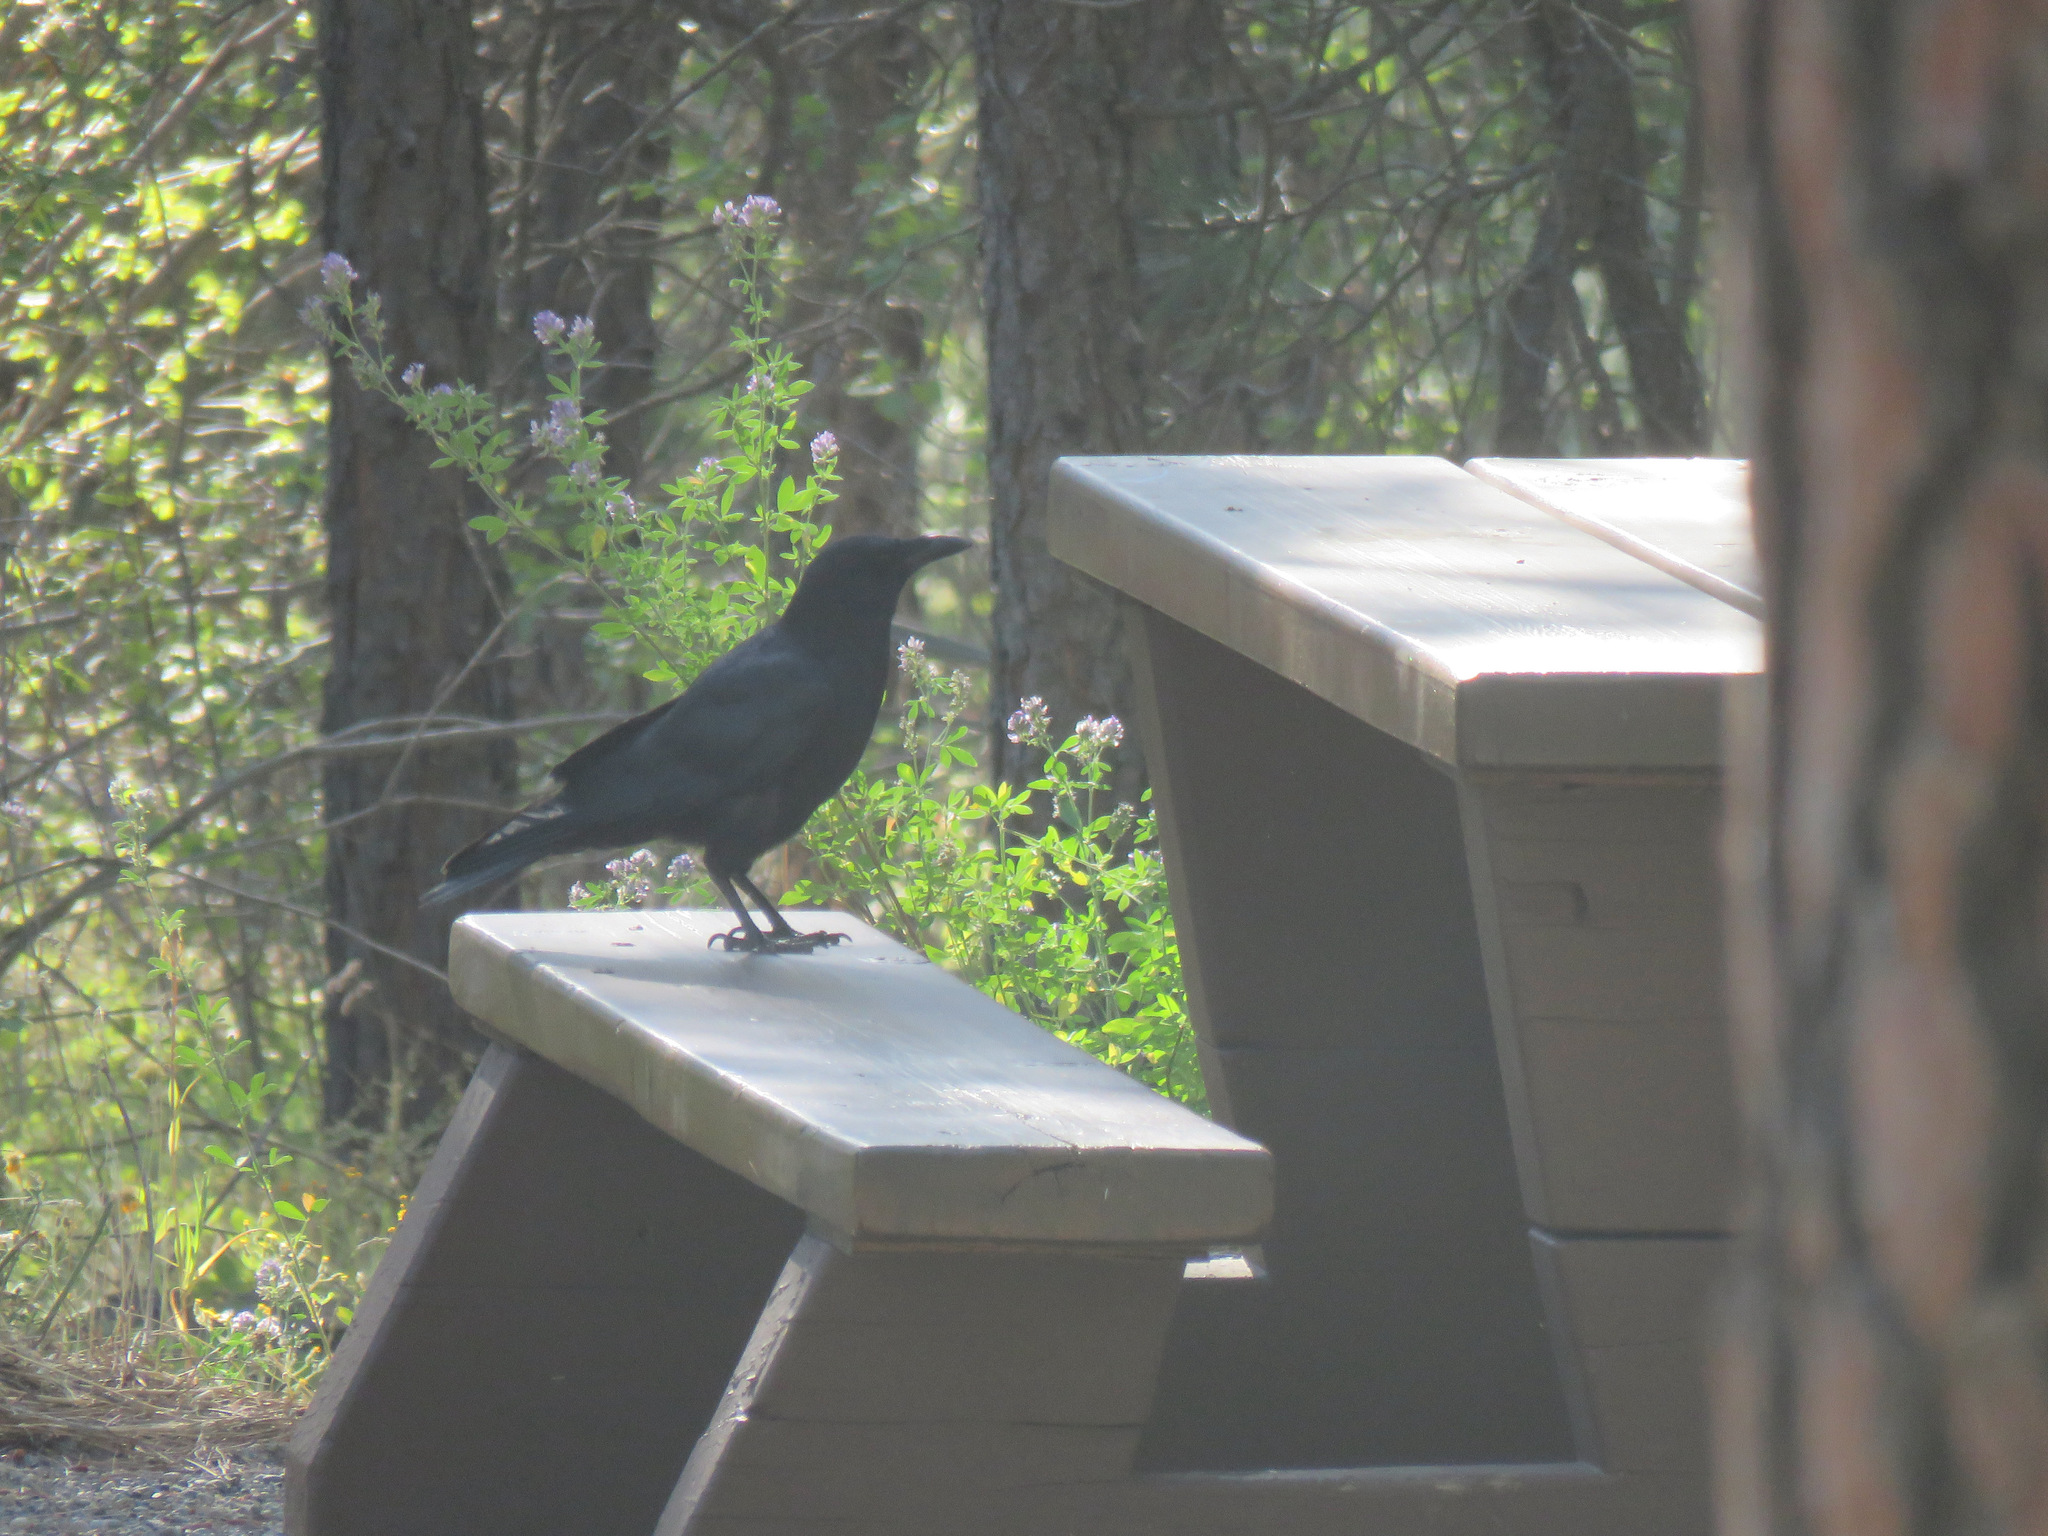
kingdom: Animalia
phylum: Chordata
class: Aves
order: Passeriformes
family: Corvidae
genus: Corvus
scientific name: Corvus brachyrhynchos
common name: American crow
